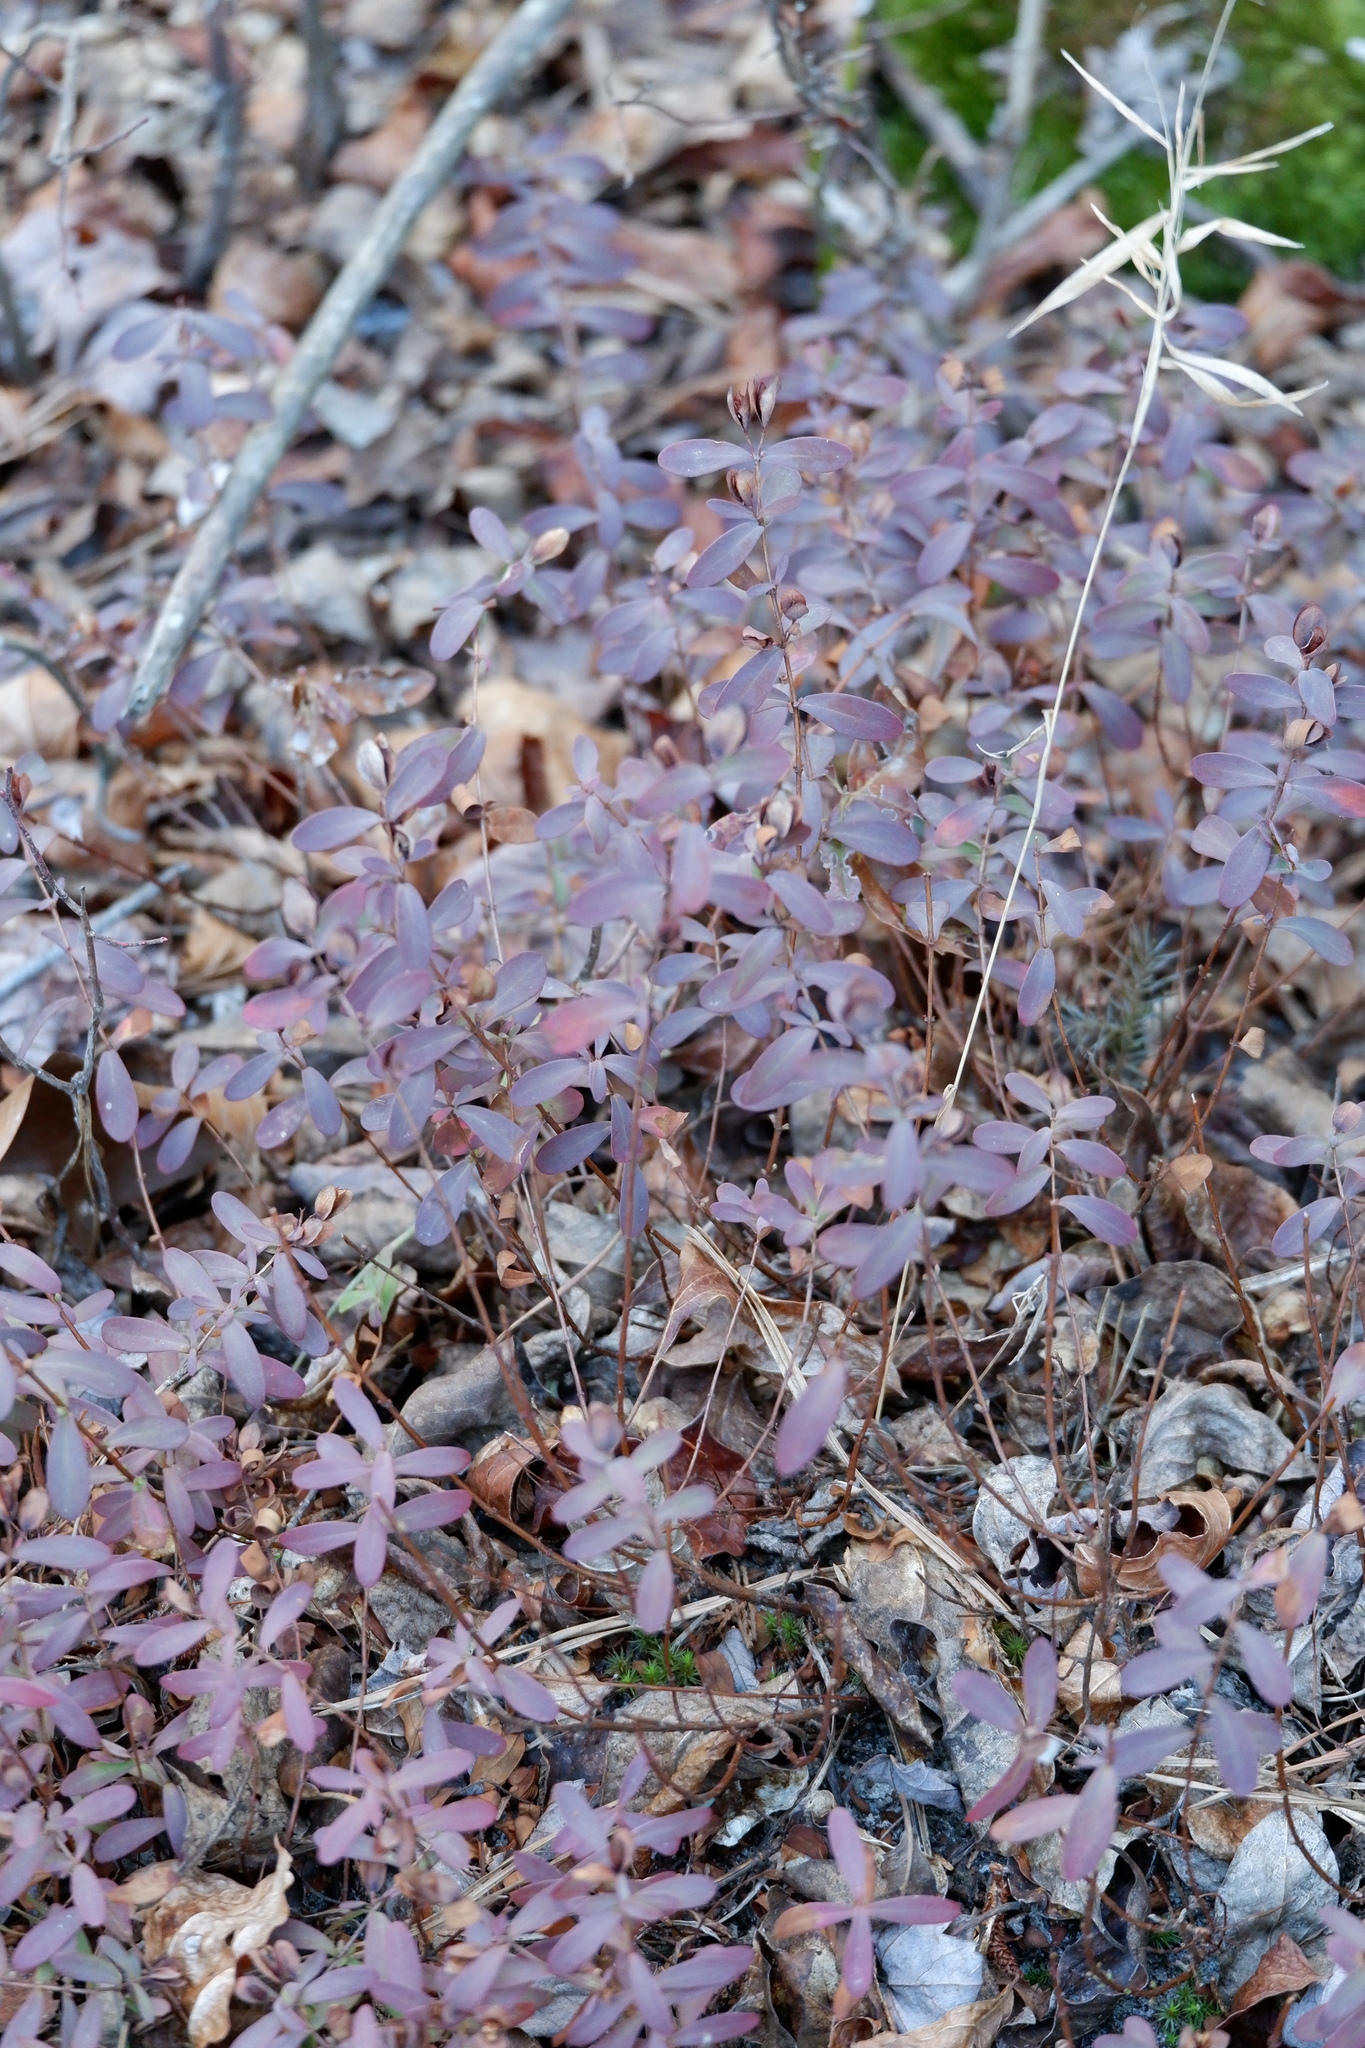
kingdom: Plantae
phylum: Tracheophyta
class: Magnoliopsida
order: Malpighiales
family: Hypericaceae
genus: Hypericum
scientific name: Hypericum hypericoides
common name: St. andrew's cross
